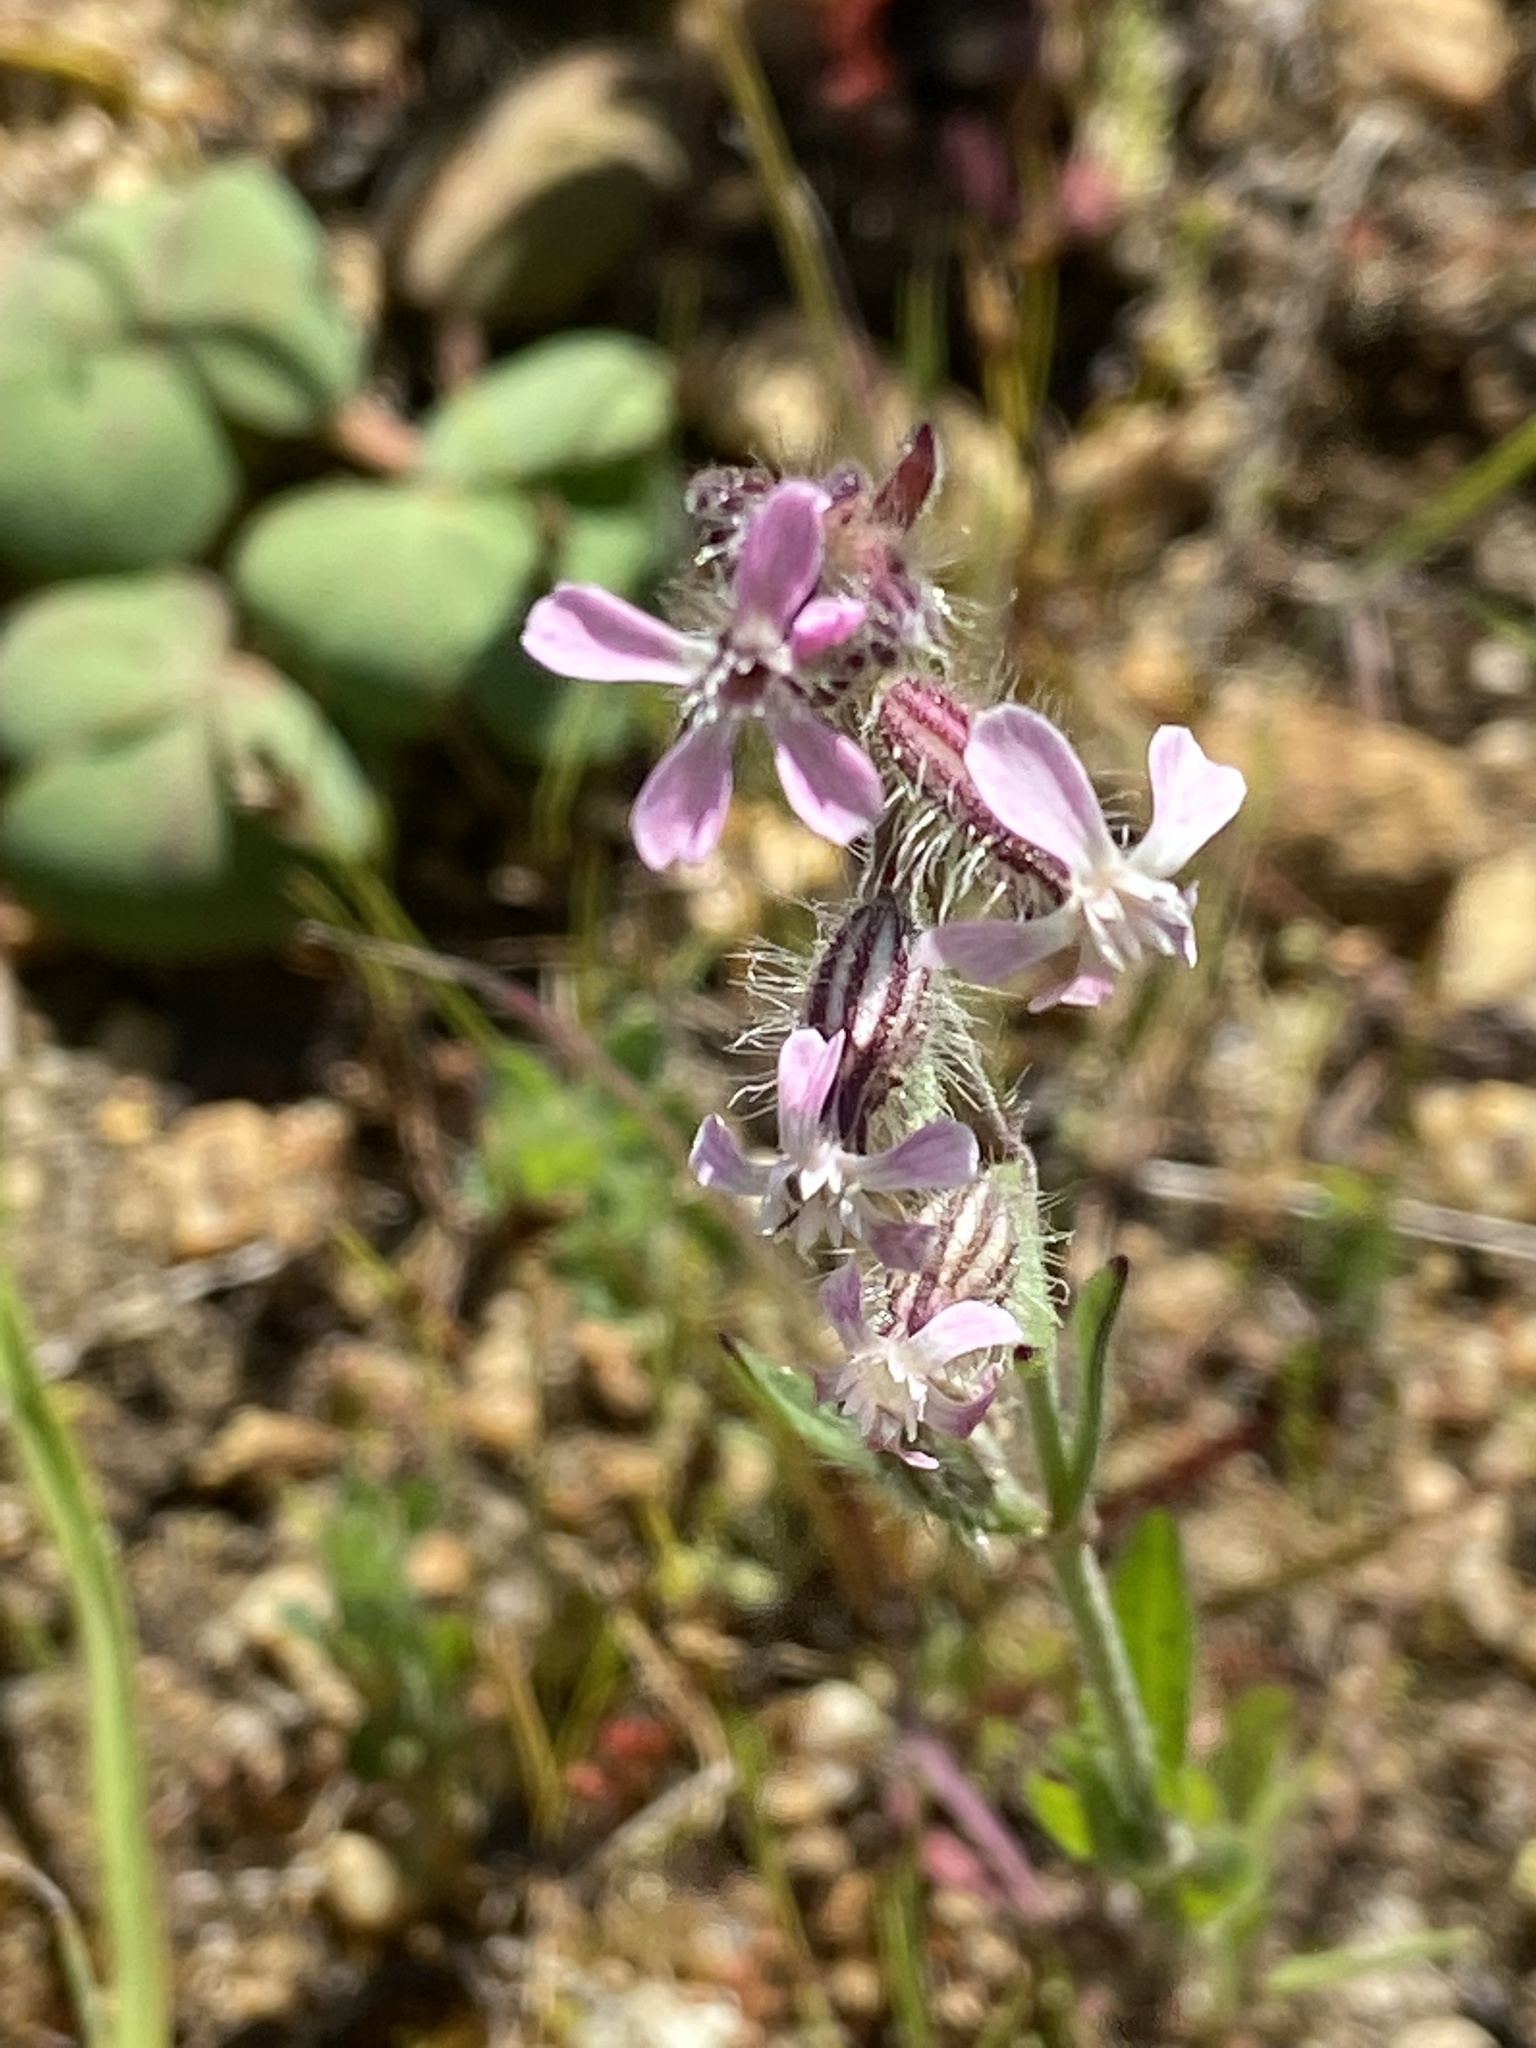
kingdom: Plantae
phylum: Tracheophyta
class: Magnoliopsida
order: Caryophyllales
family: Caryophyllaceae
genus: Silene
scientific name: Silene gallica
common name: Small-flowered catchfly
